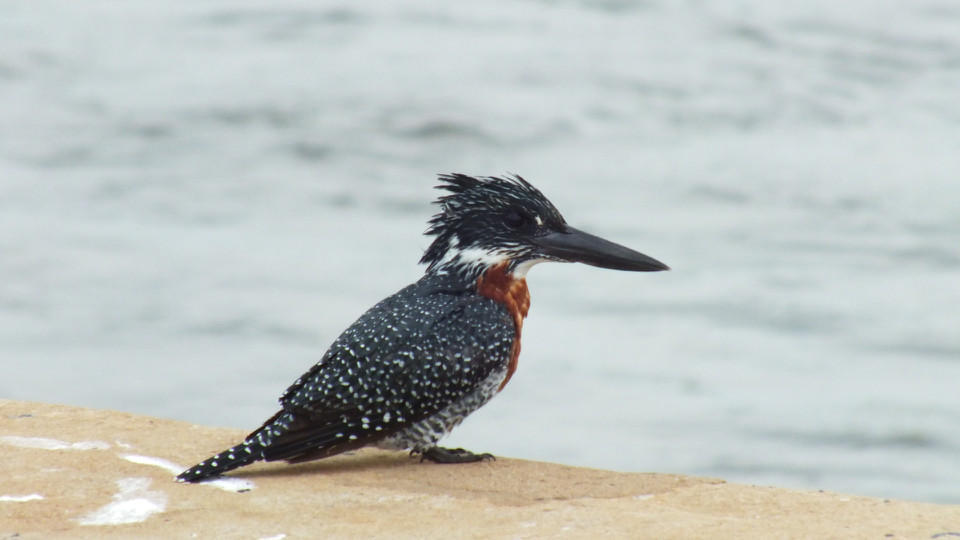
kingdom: Animalia
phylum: Chordata
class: Aves
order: Coraciiformes
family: Alcedinidae
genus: Megaceryle
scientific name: Megaceryle maxima
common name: Giant kingfisher
